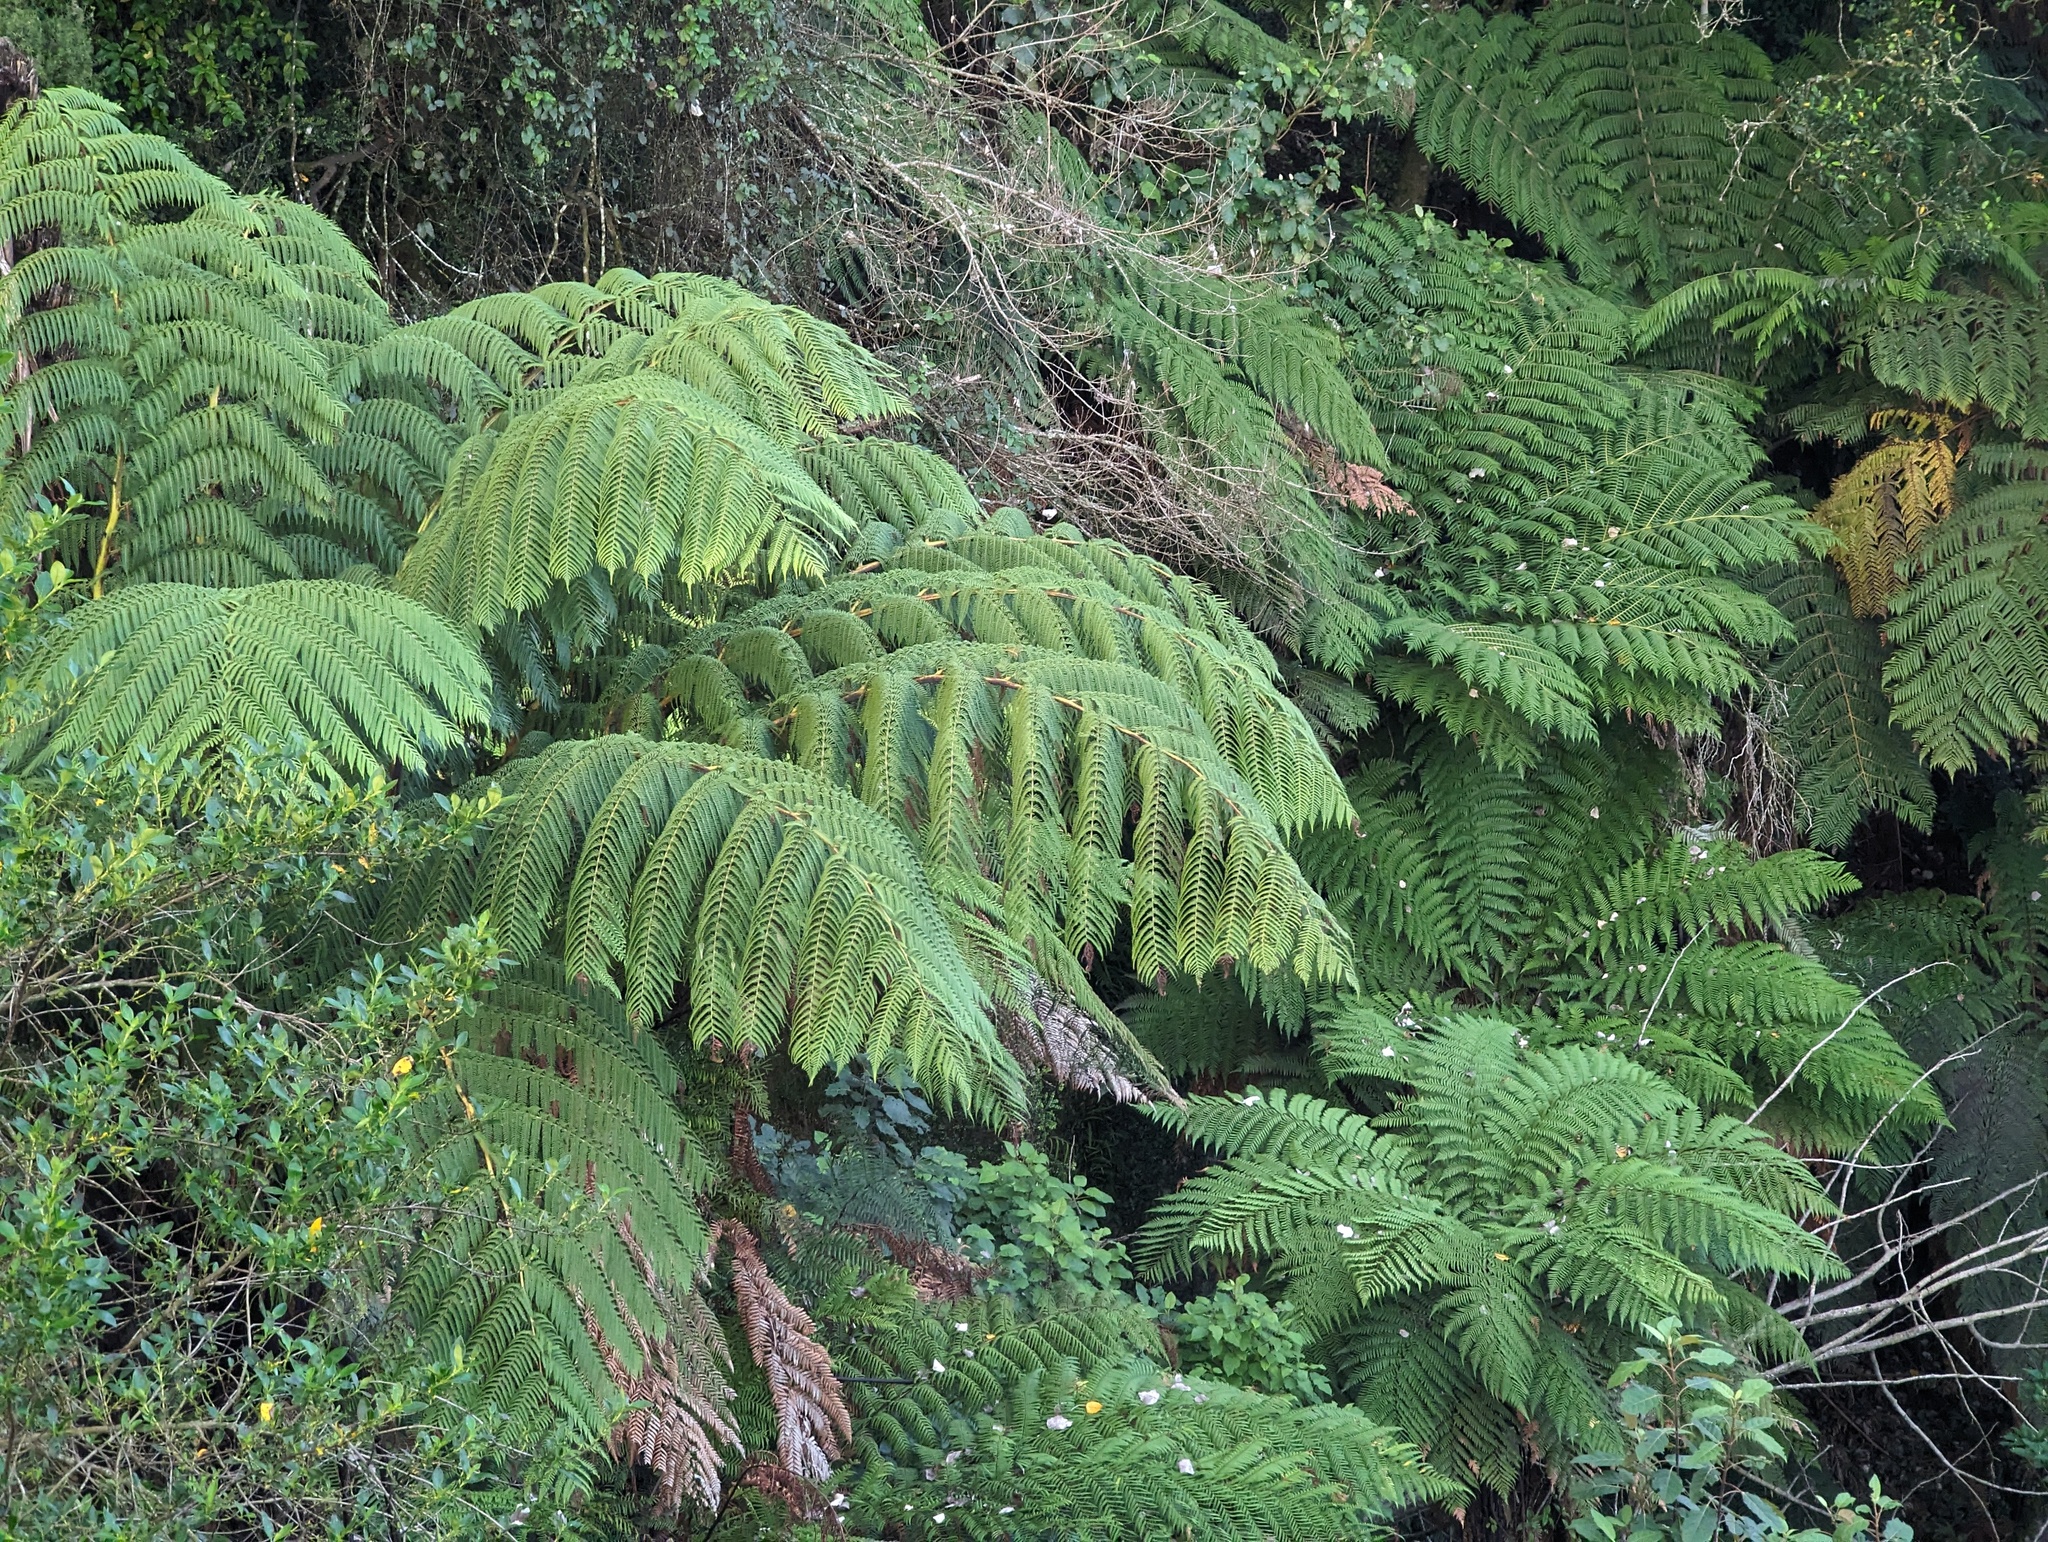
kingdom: Plantae
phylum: Tracheophyta
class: Polypodiopsida
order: Cyatheales
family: Cyatheaceae
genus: Sphaeropteris
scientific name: Sphaeropteris medullaris
